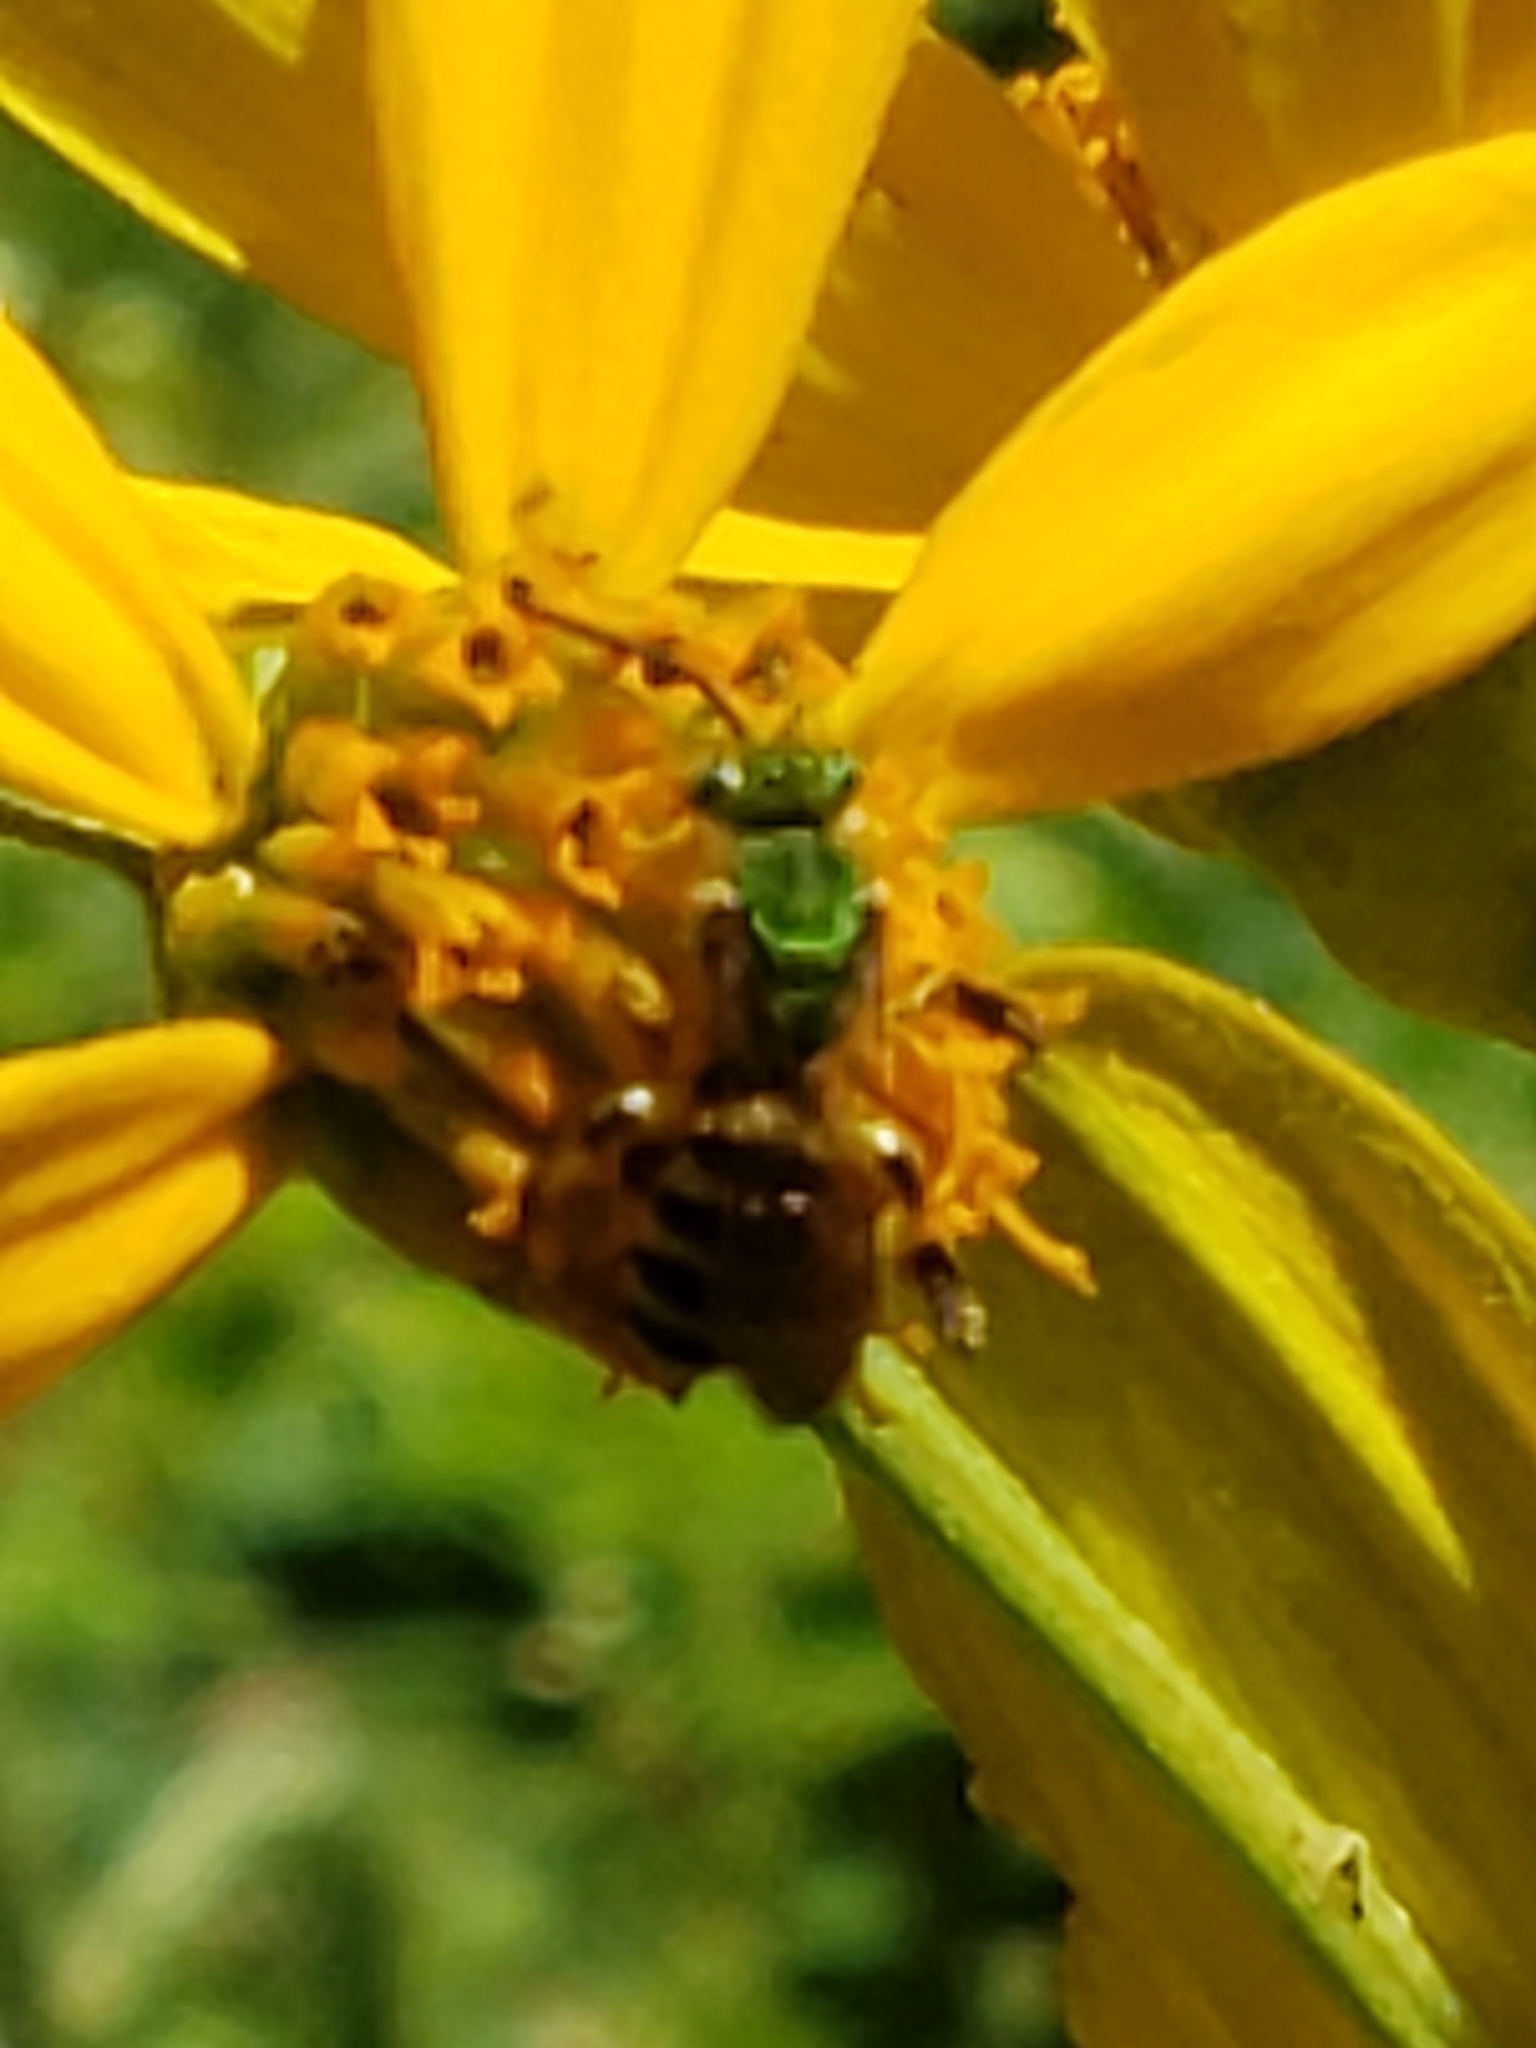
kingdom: Animalia
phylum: Arthropoda
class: Insecta
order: Hymenoptera
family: Halictidae
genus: Agapostemon
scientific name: Agapostemon splendens
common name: Brown-winged striped sweat bee
